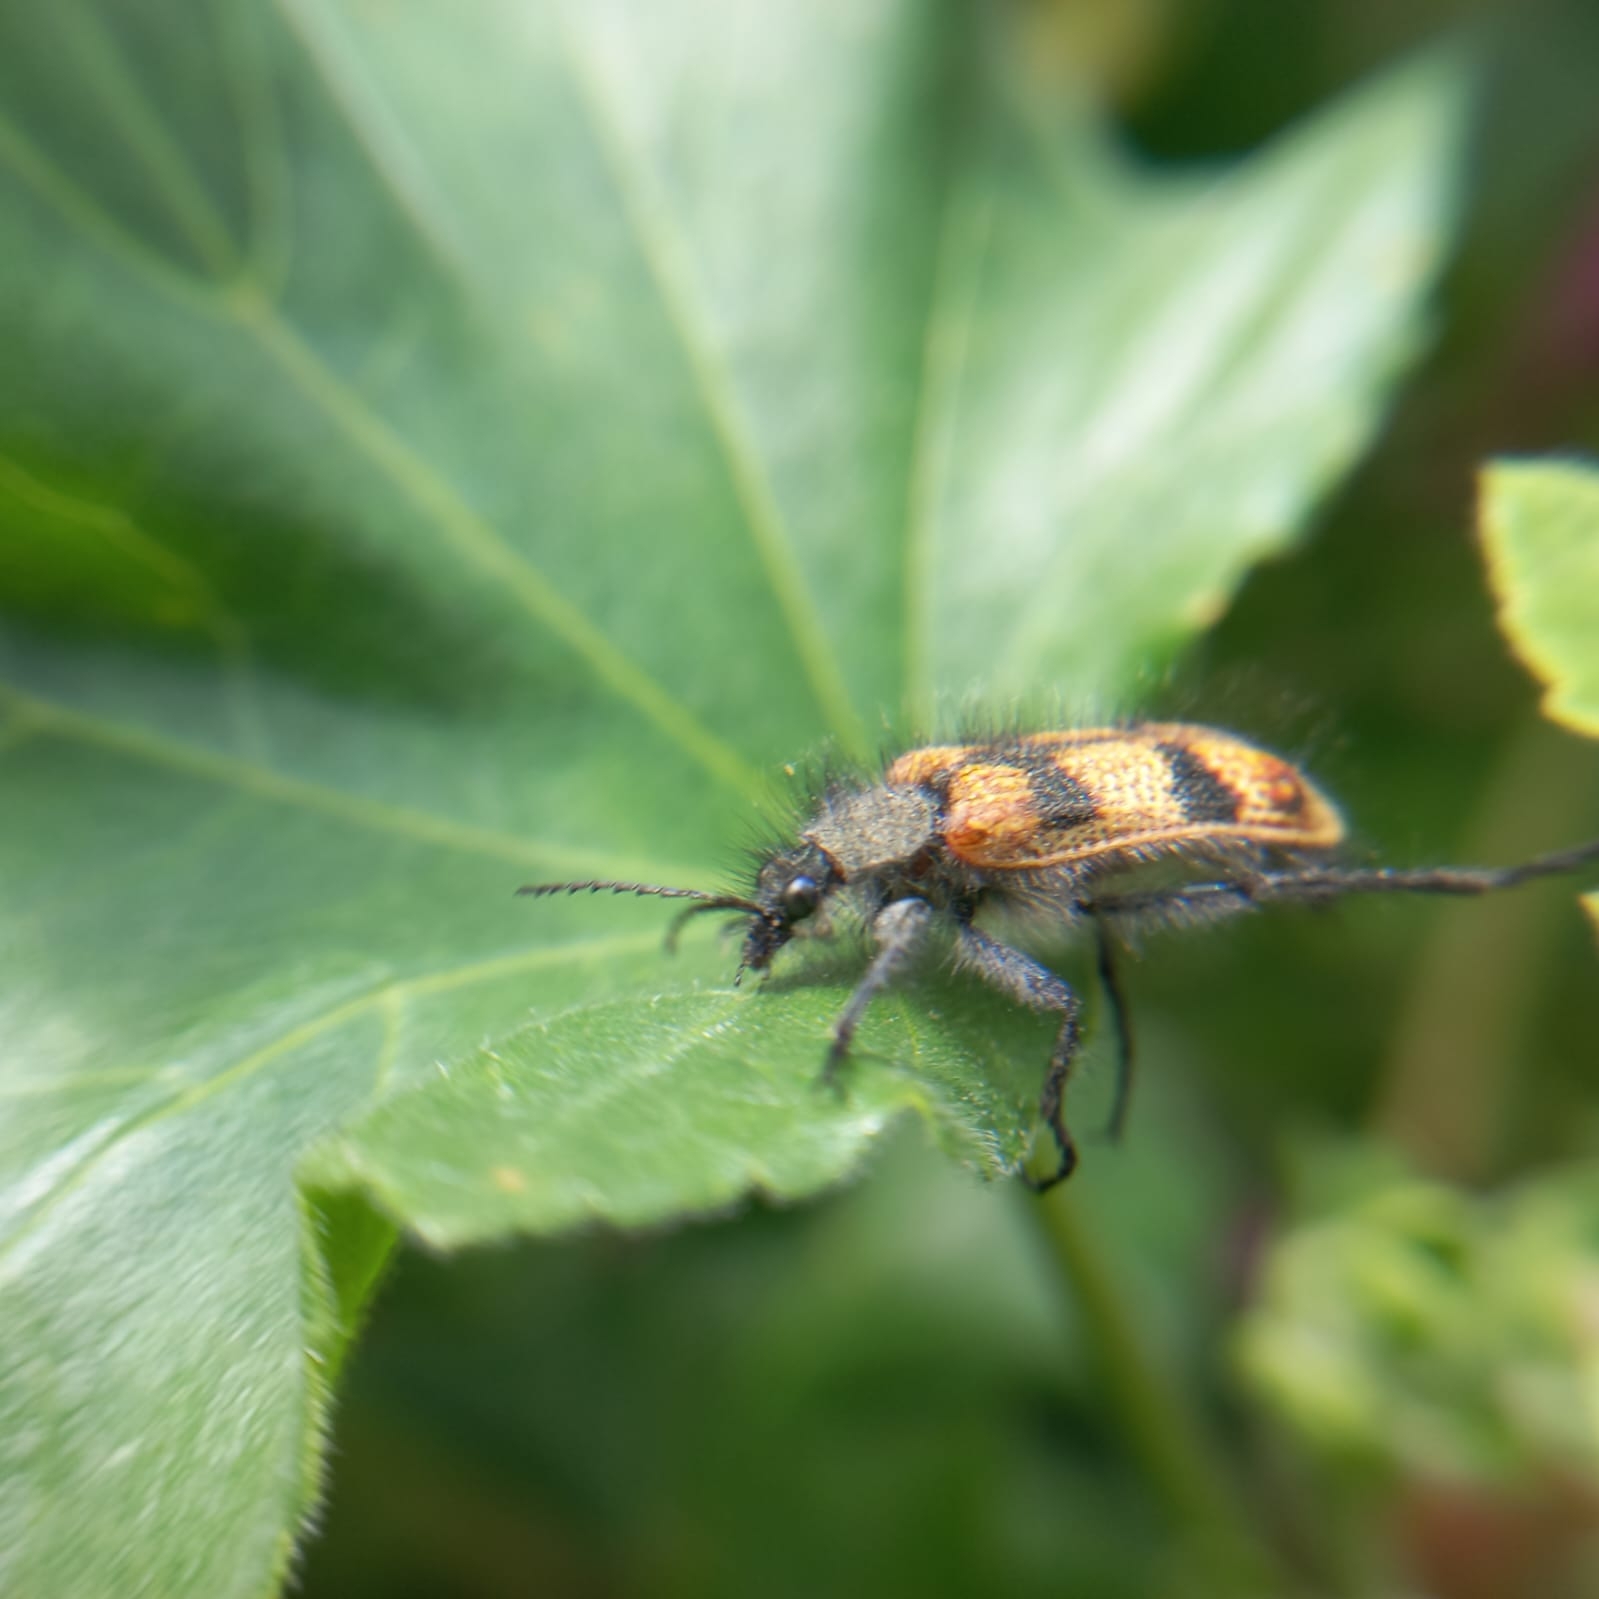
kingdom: Animalia
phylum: Arthropoda
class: Insecta
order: Coleoptera
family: Melyridae
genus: Astylus
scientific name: Astylus
